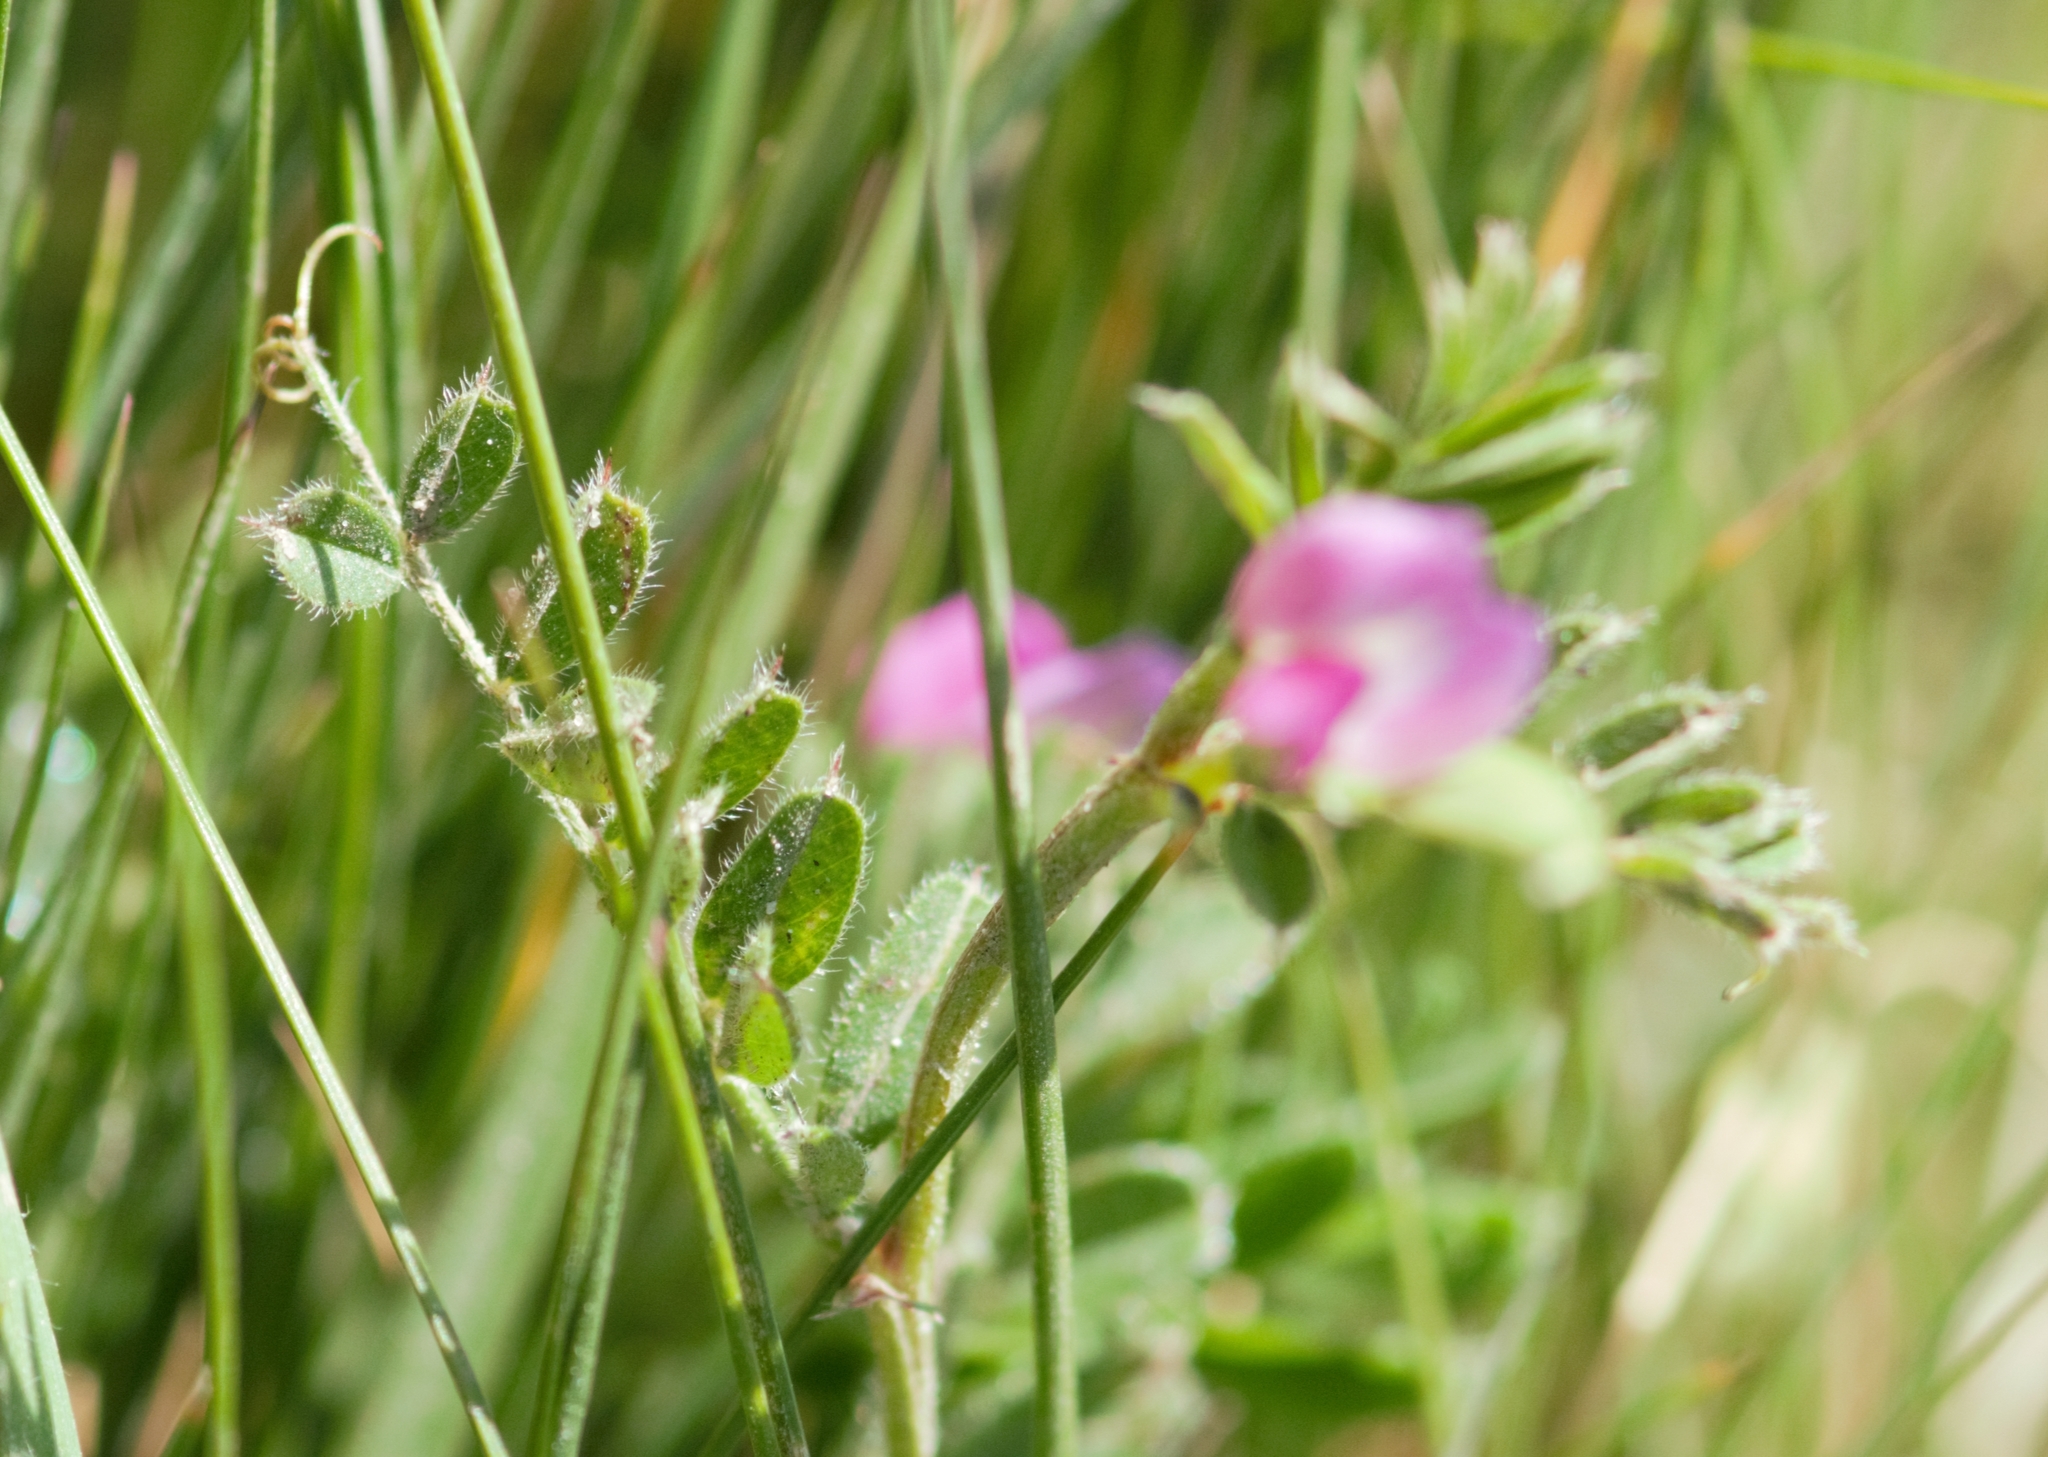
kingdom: Plantae
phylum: Tracheophyta
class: Magnoliopsida
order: Fabales
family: Fabaceae
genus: Vicia
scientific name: Vicia sativa
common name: Garden vetch
